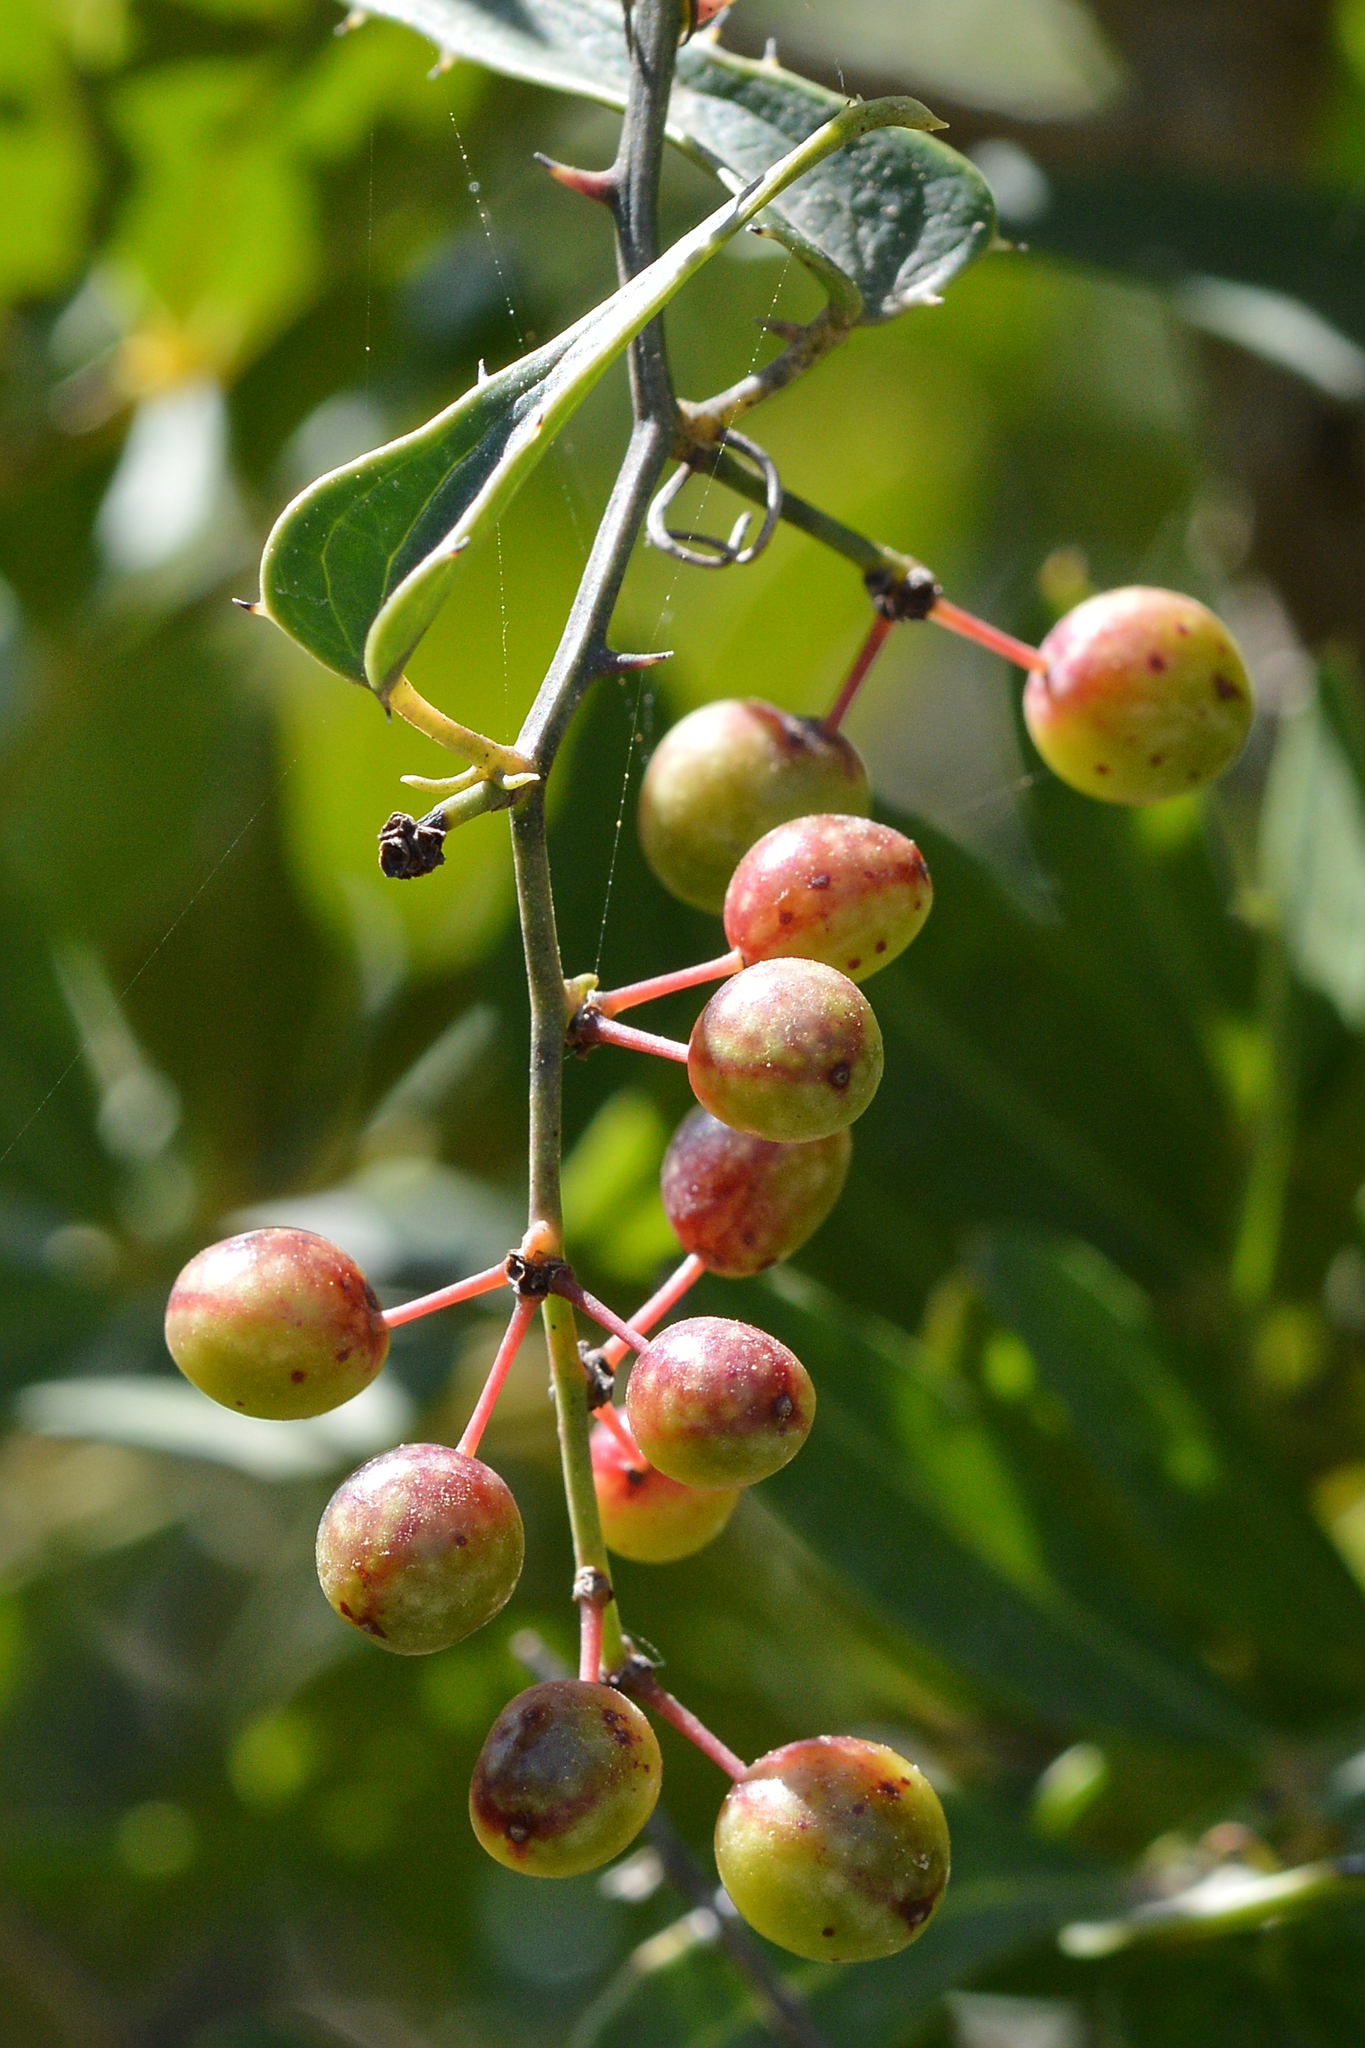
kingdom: Plantae
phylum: Tracheophyta
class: Liliopsida
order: Liliales
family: Smilacaceae
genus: Smilax
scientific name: Smilax aspera
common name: Common smilax
